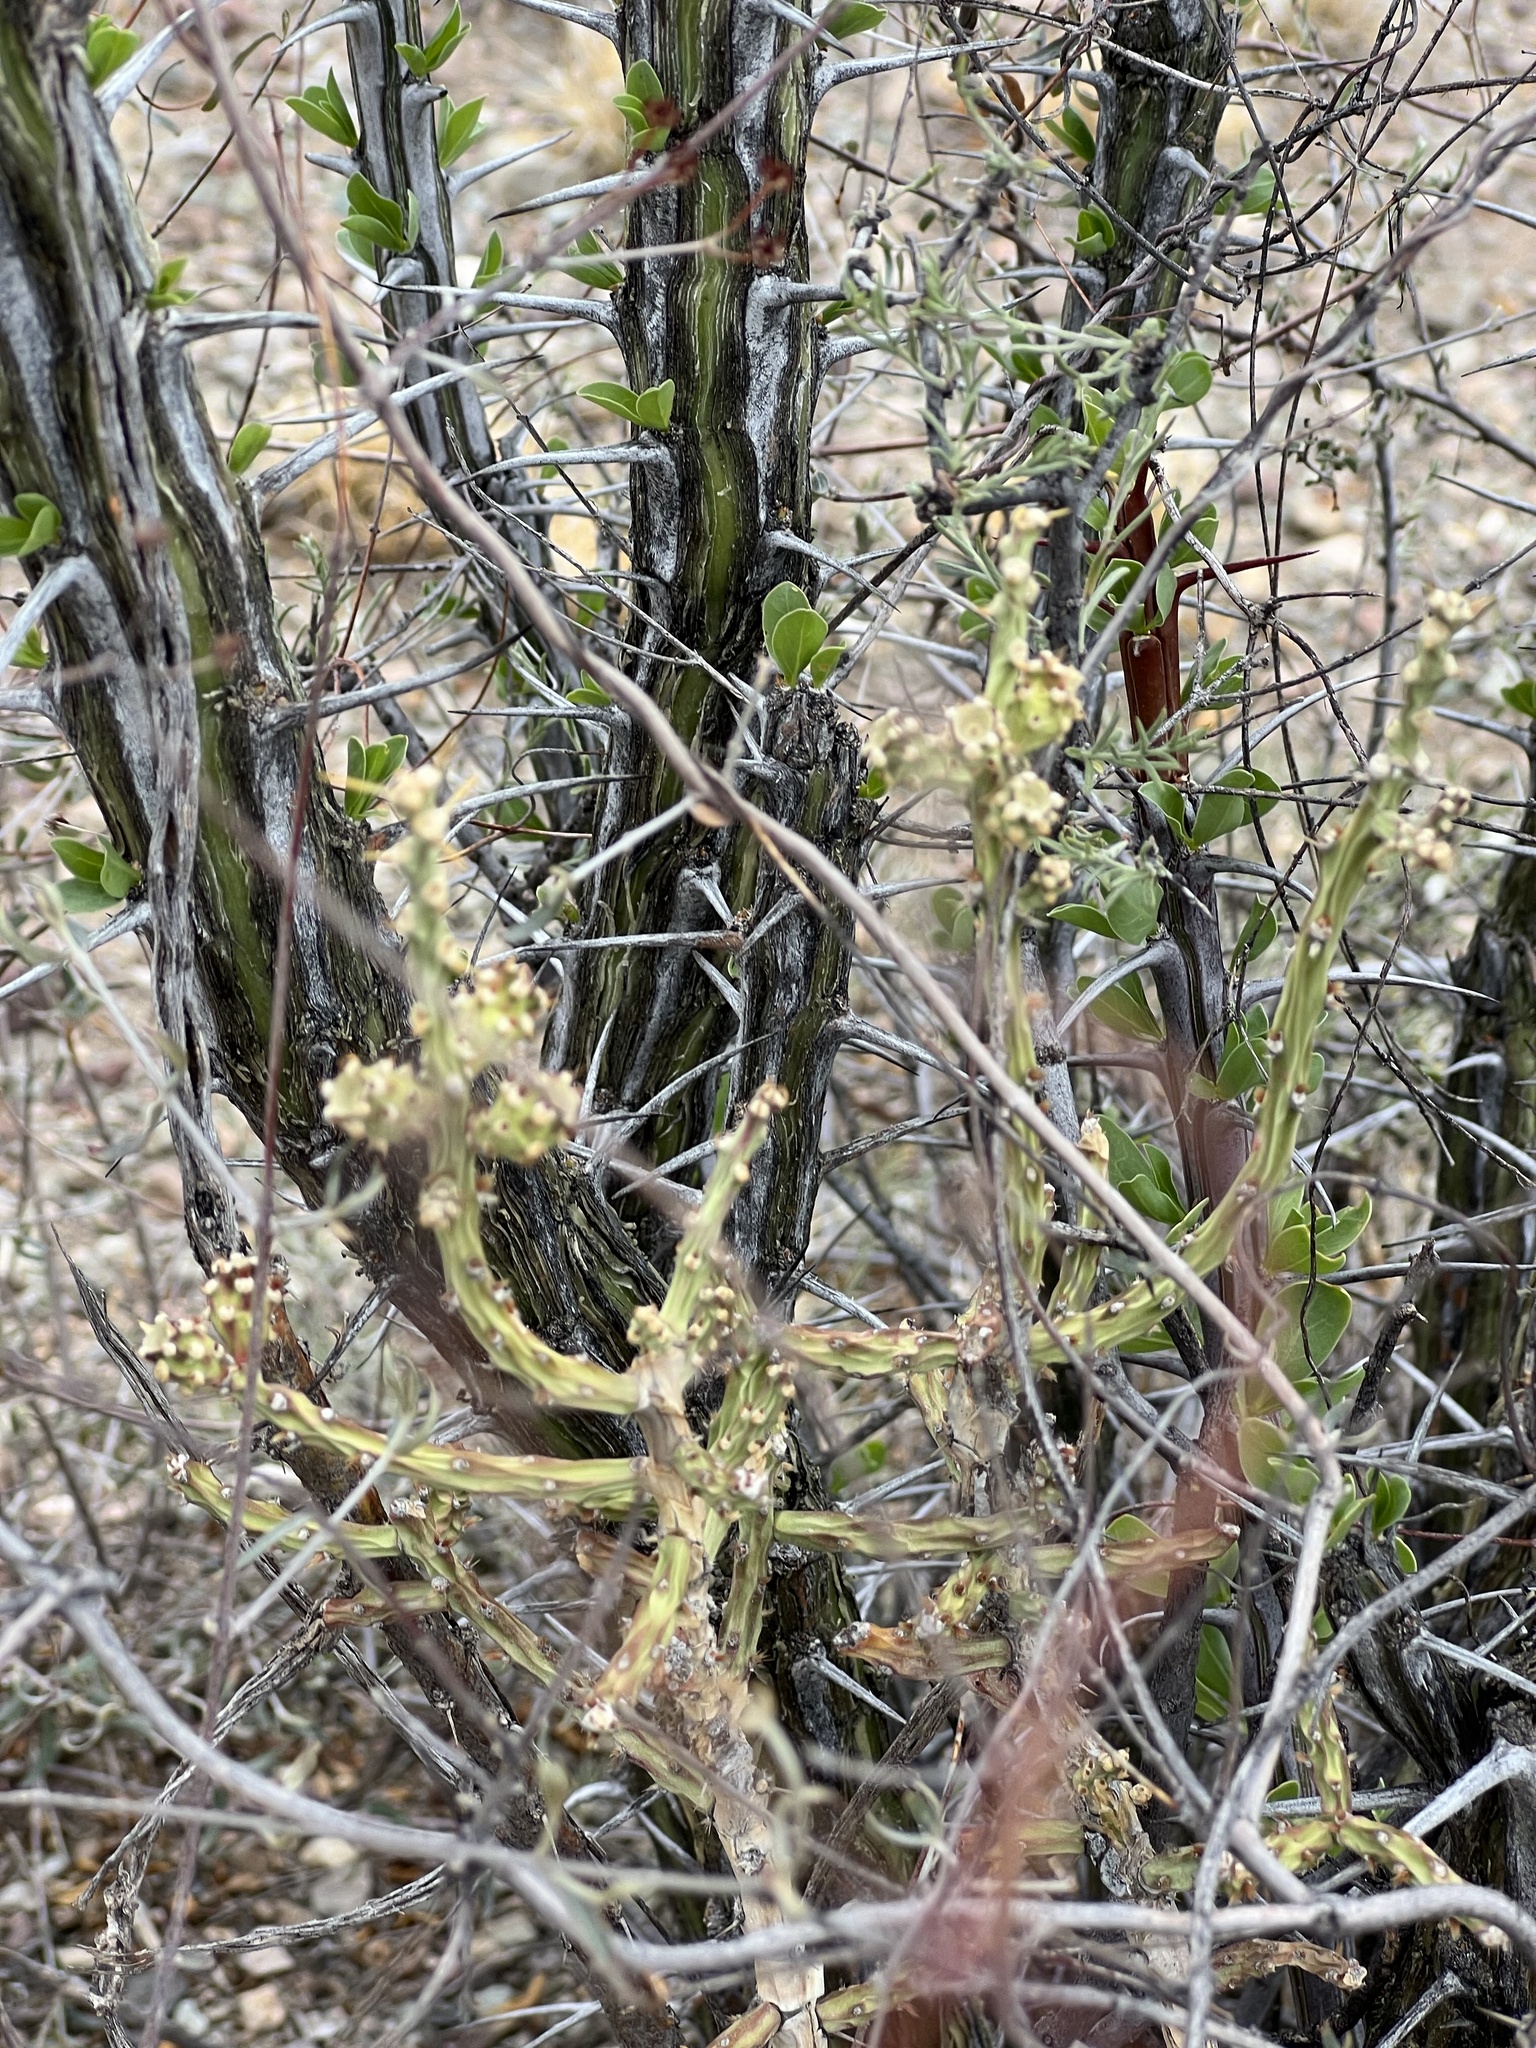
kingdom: Plantae
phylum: Tracheophyta
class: Magnoliopsida
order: Caryophyllales
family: Cactaceae
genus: Cylindropuntia
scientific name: Cylindropuntia leptocaulis
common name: Christmas cactus
